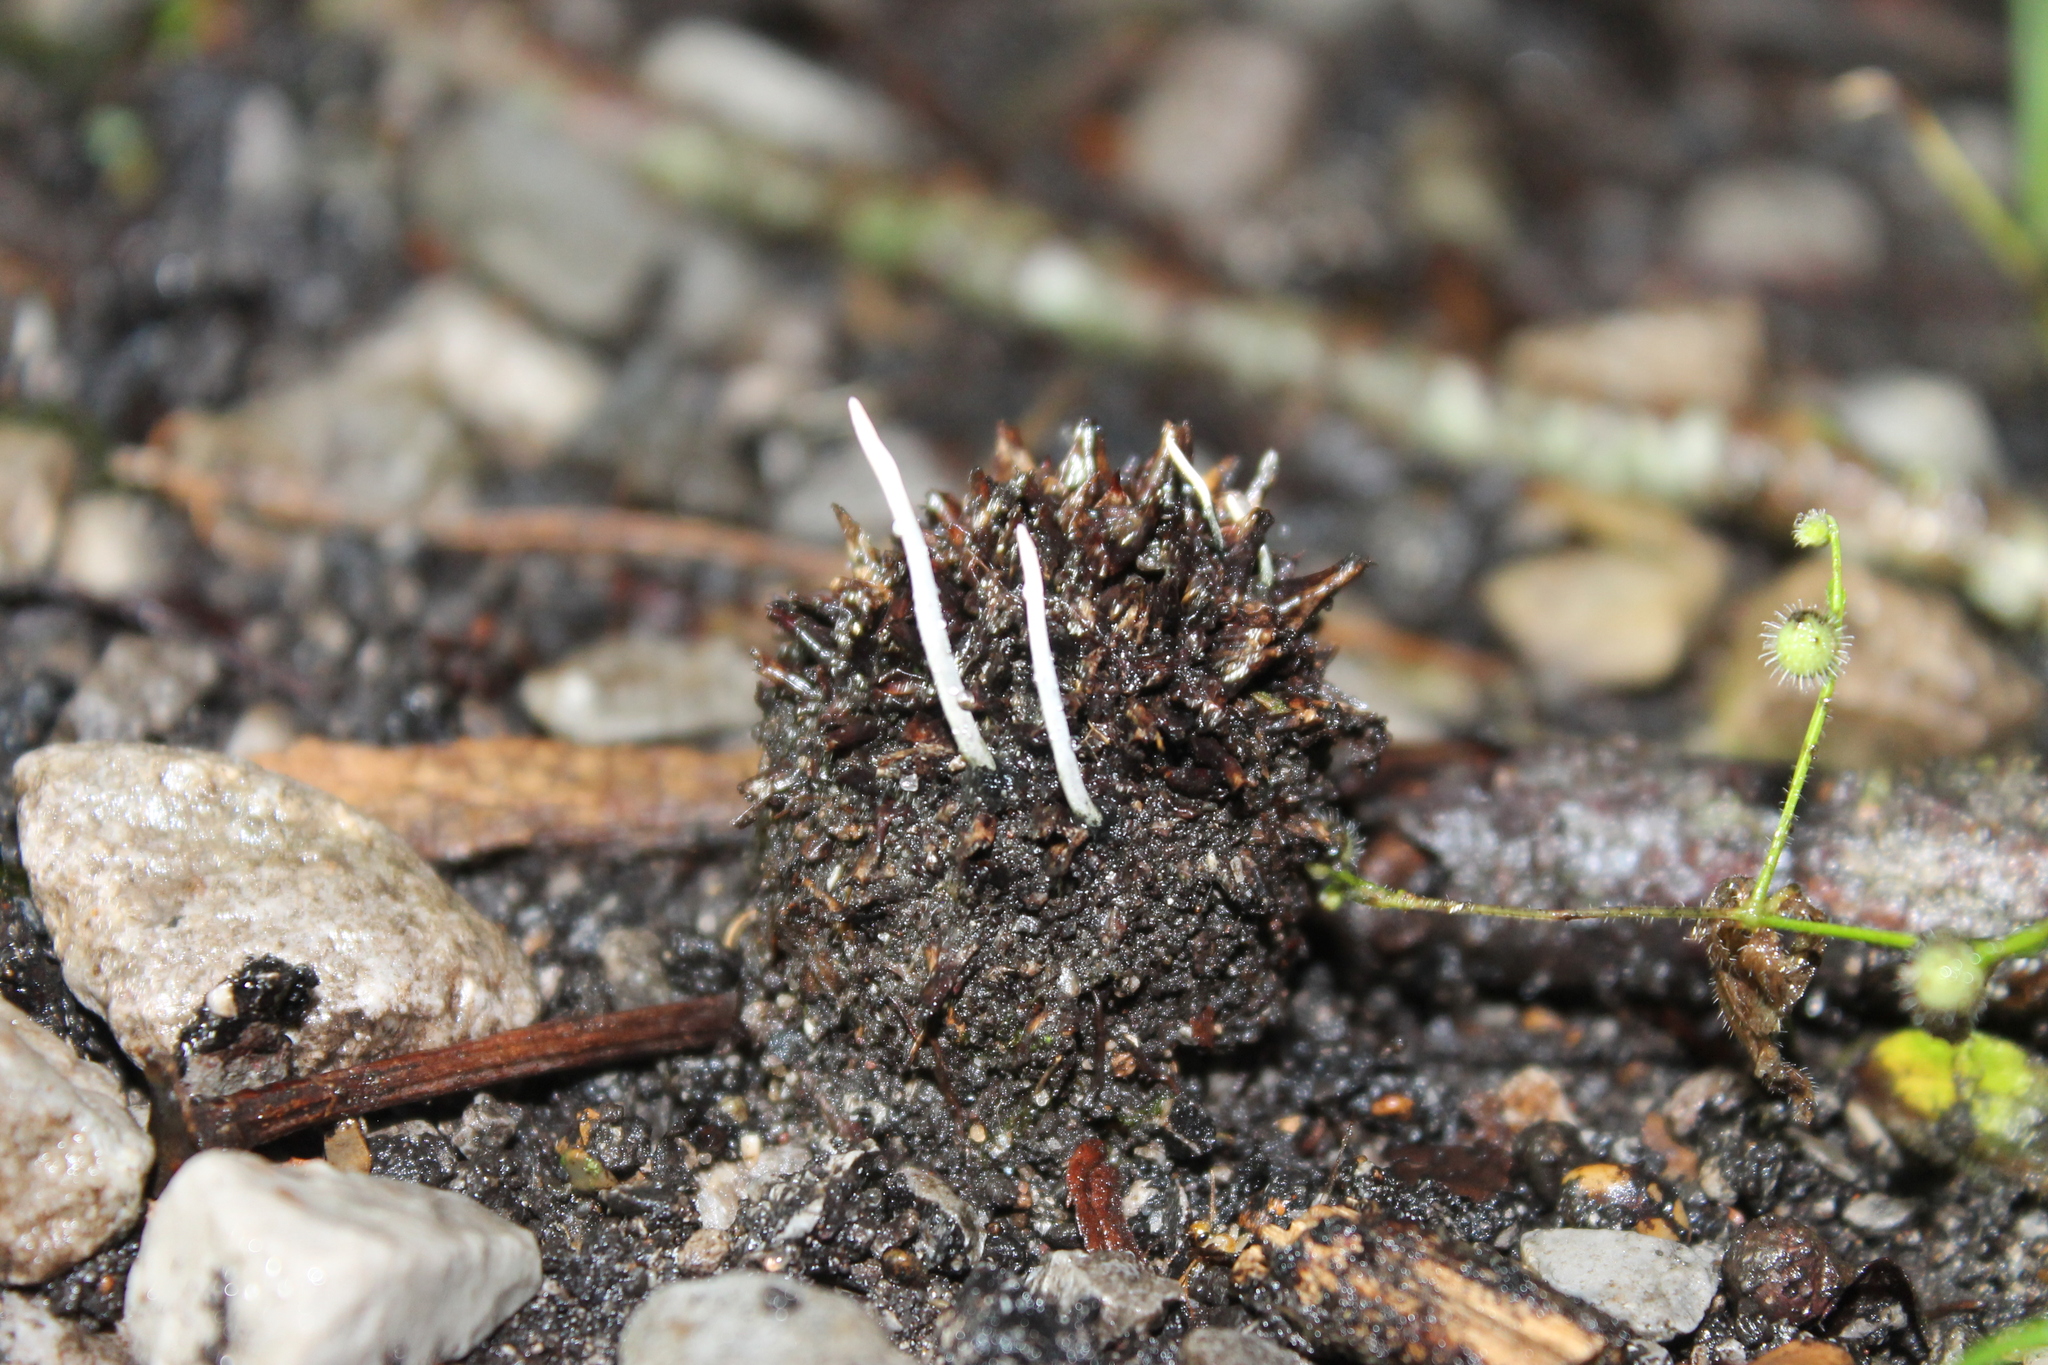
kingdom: Fungi
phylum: Ascomycota
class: Sordariomycetes
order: Xylariales
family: Xylariaceae
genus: Xylaria
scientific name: Xylaria liquidambaris
